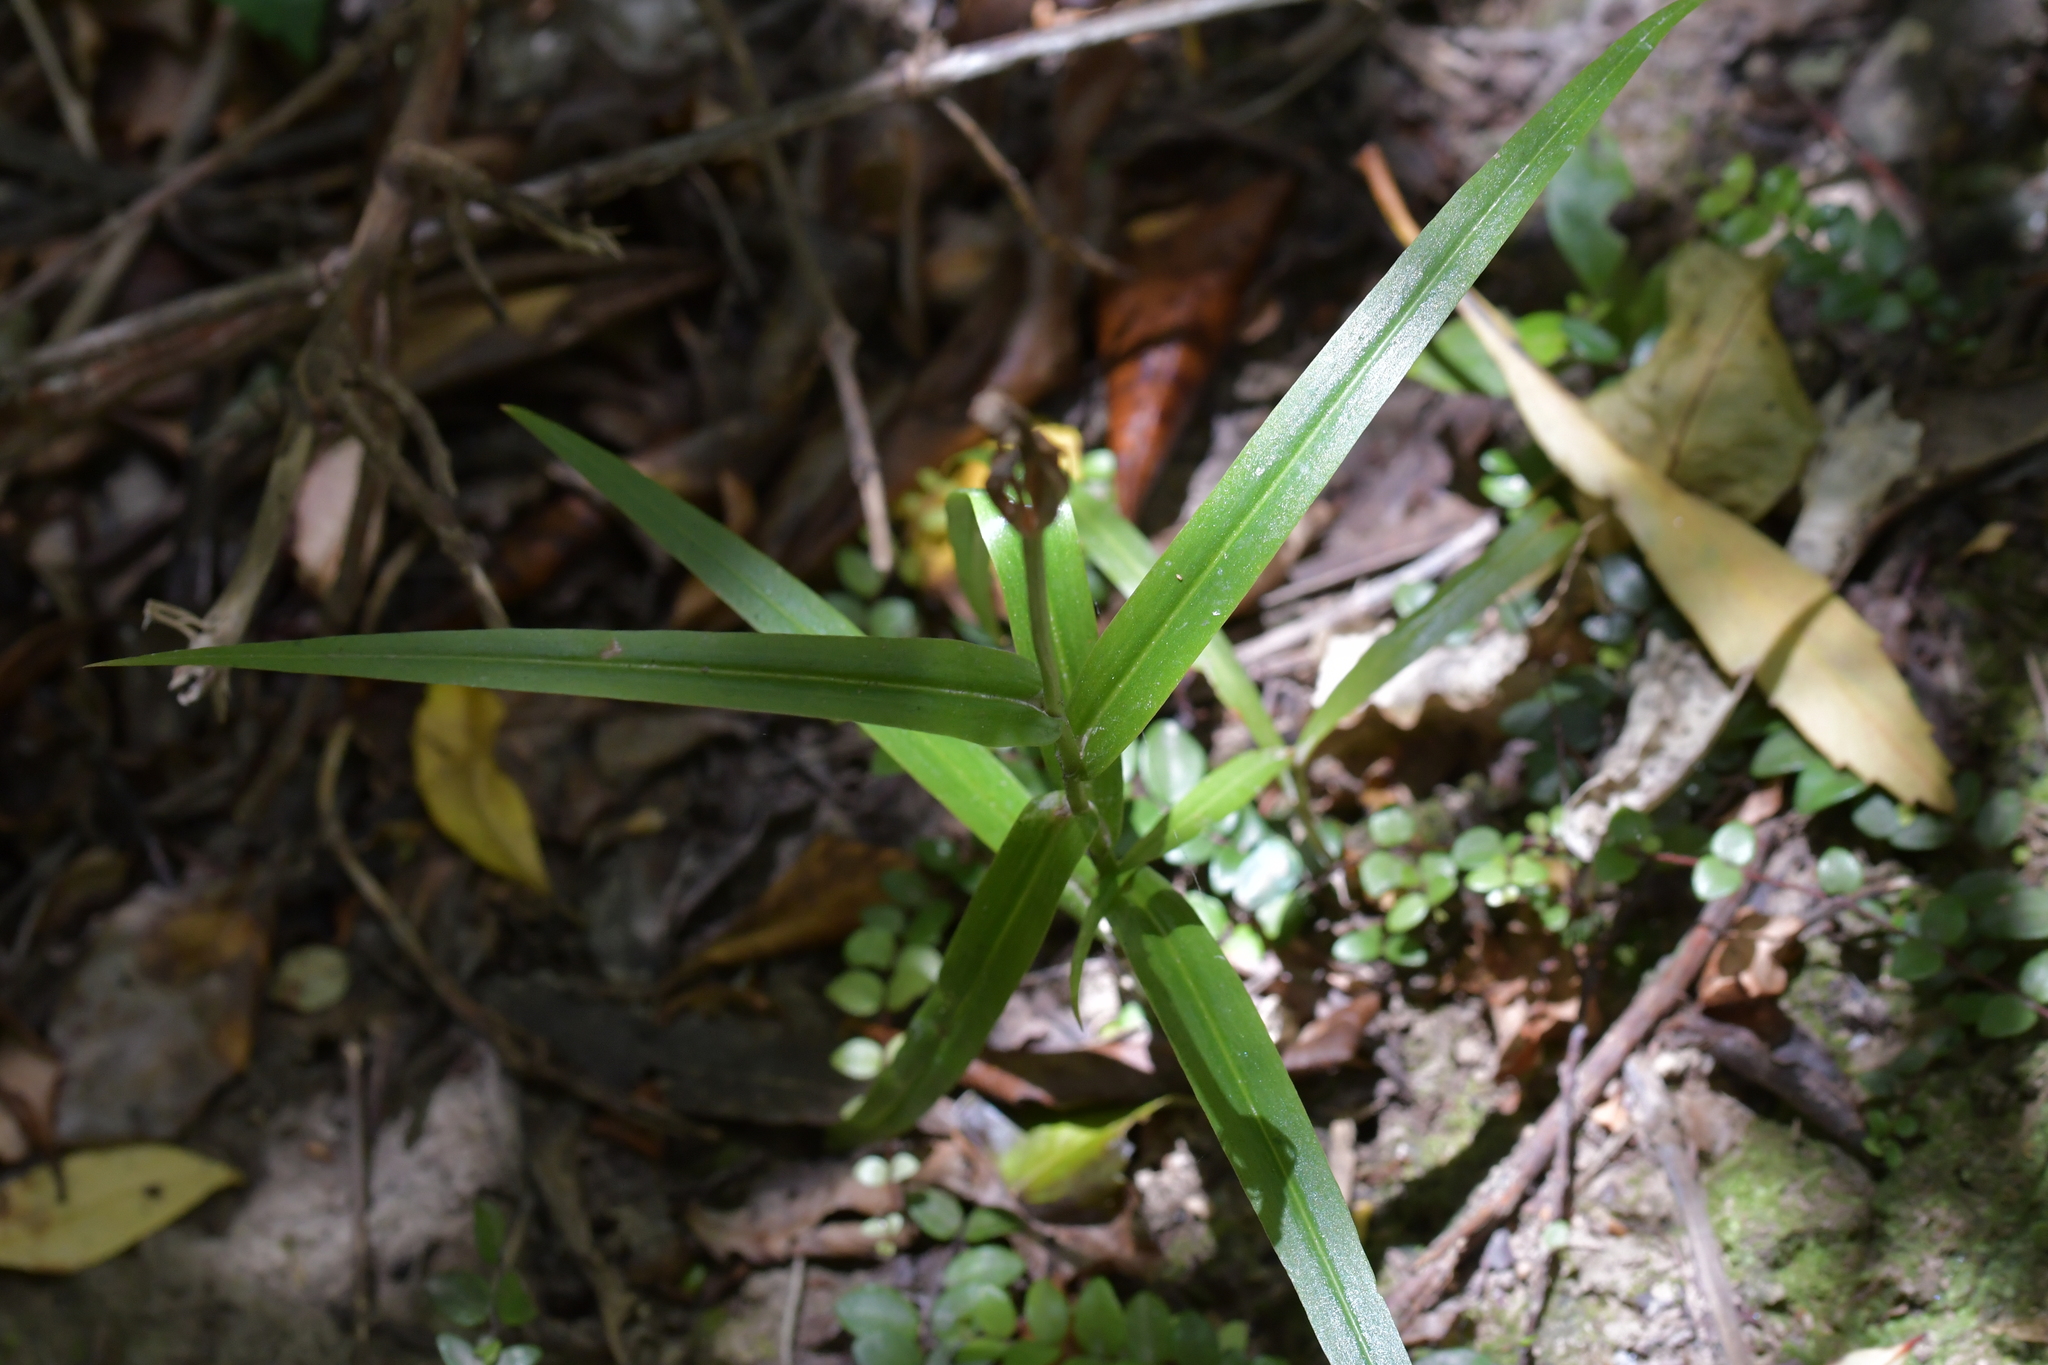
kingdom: Plantae
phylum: Tracheophyta
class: Liliopsida
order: Asparagales
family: Orchidaceae
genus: Pterostylis
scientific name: Pterostylis banksii
